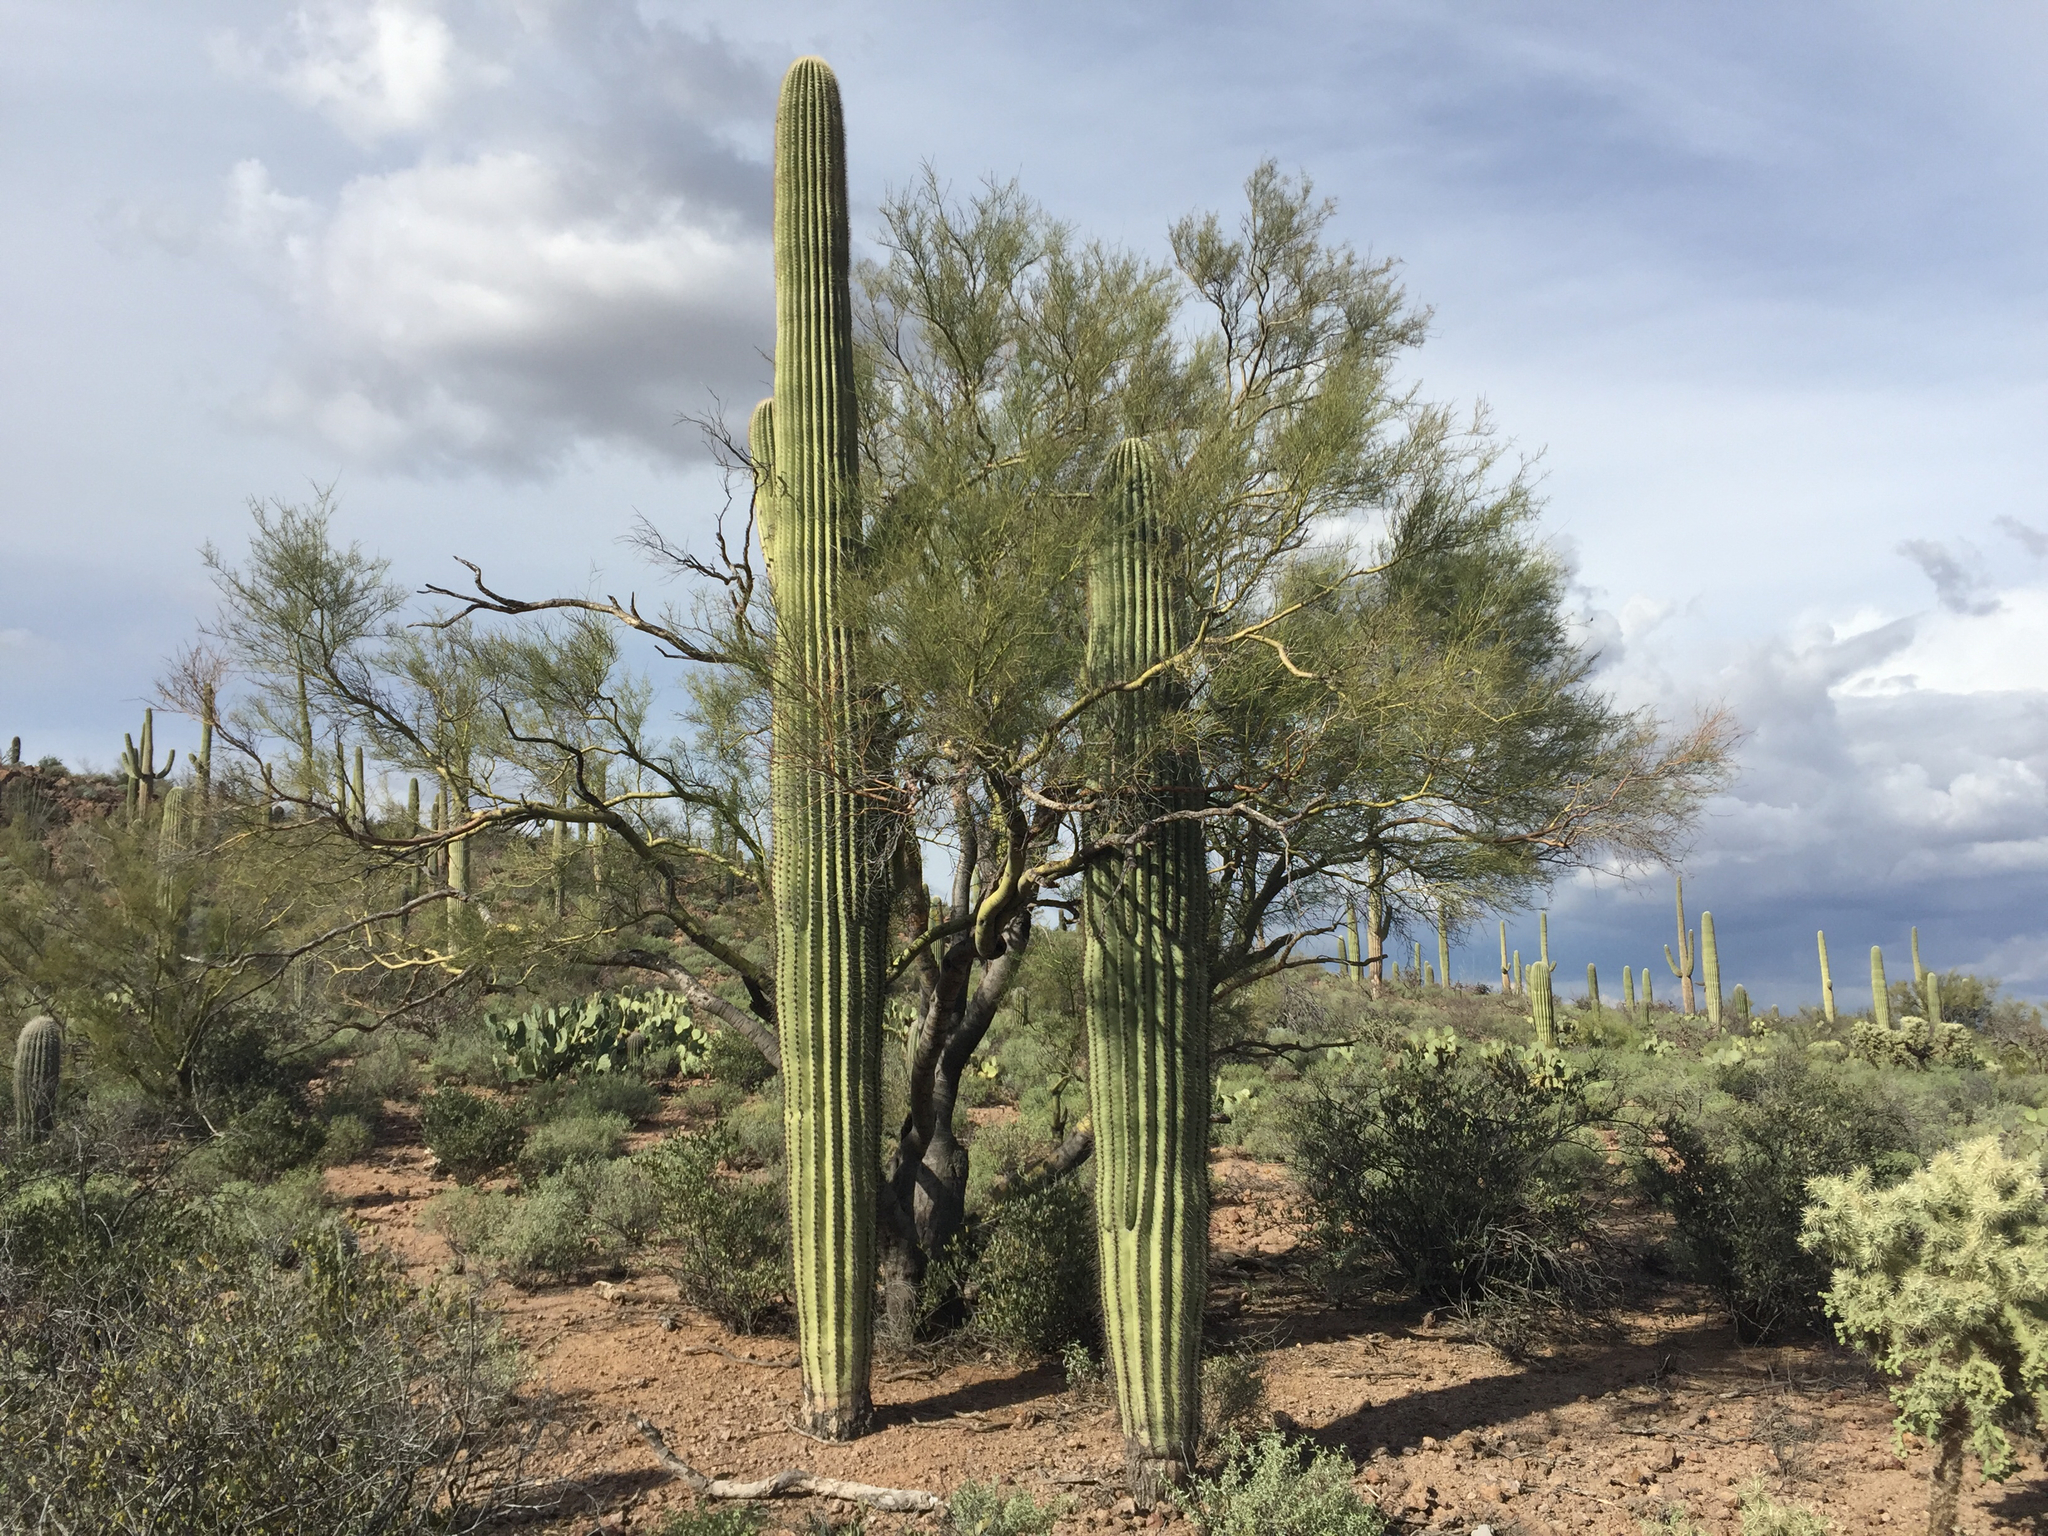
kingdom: Plantae
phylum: Tracheophyta
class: Magnoliopsida
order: Caryophyllales
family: Cactaceae
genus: Carnegiea
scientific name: Carnegiea gigantea
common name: Saguaro
